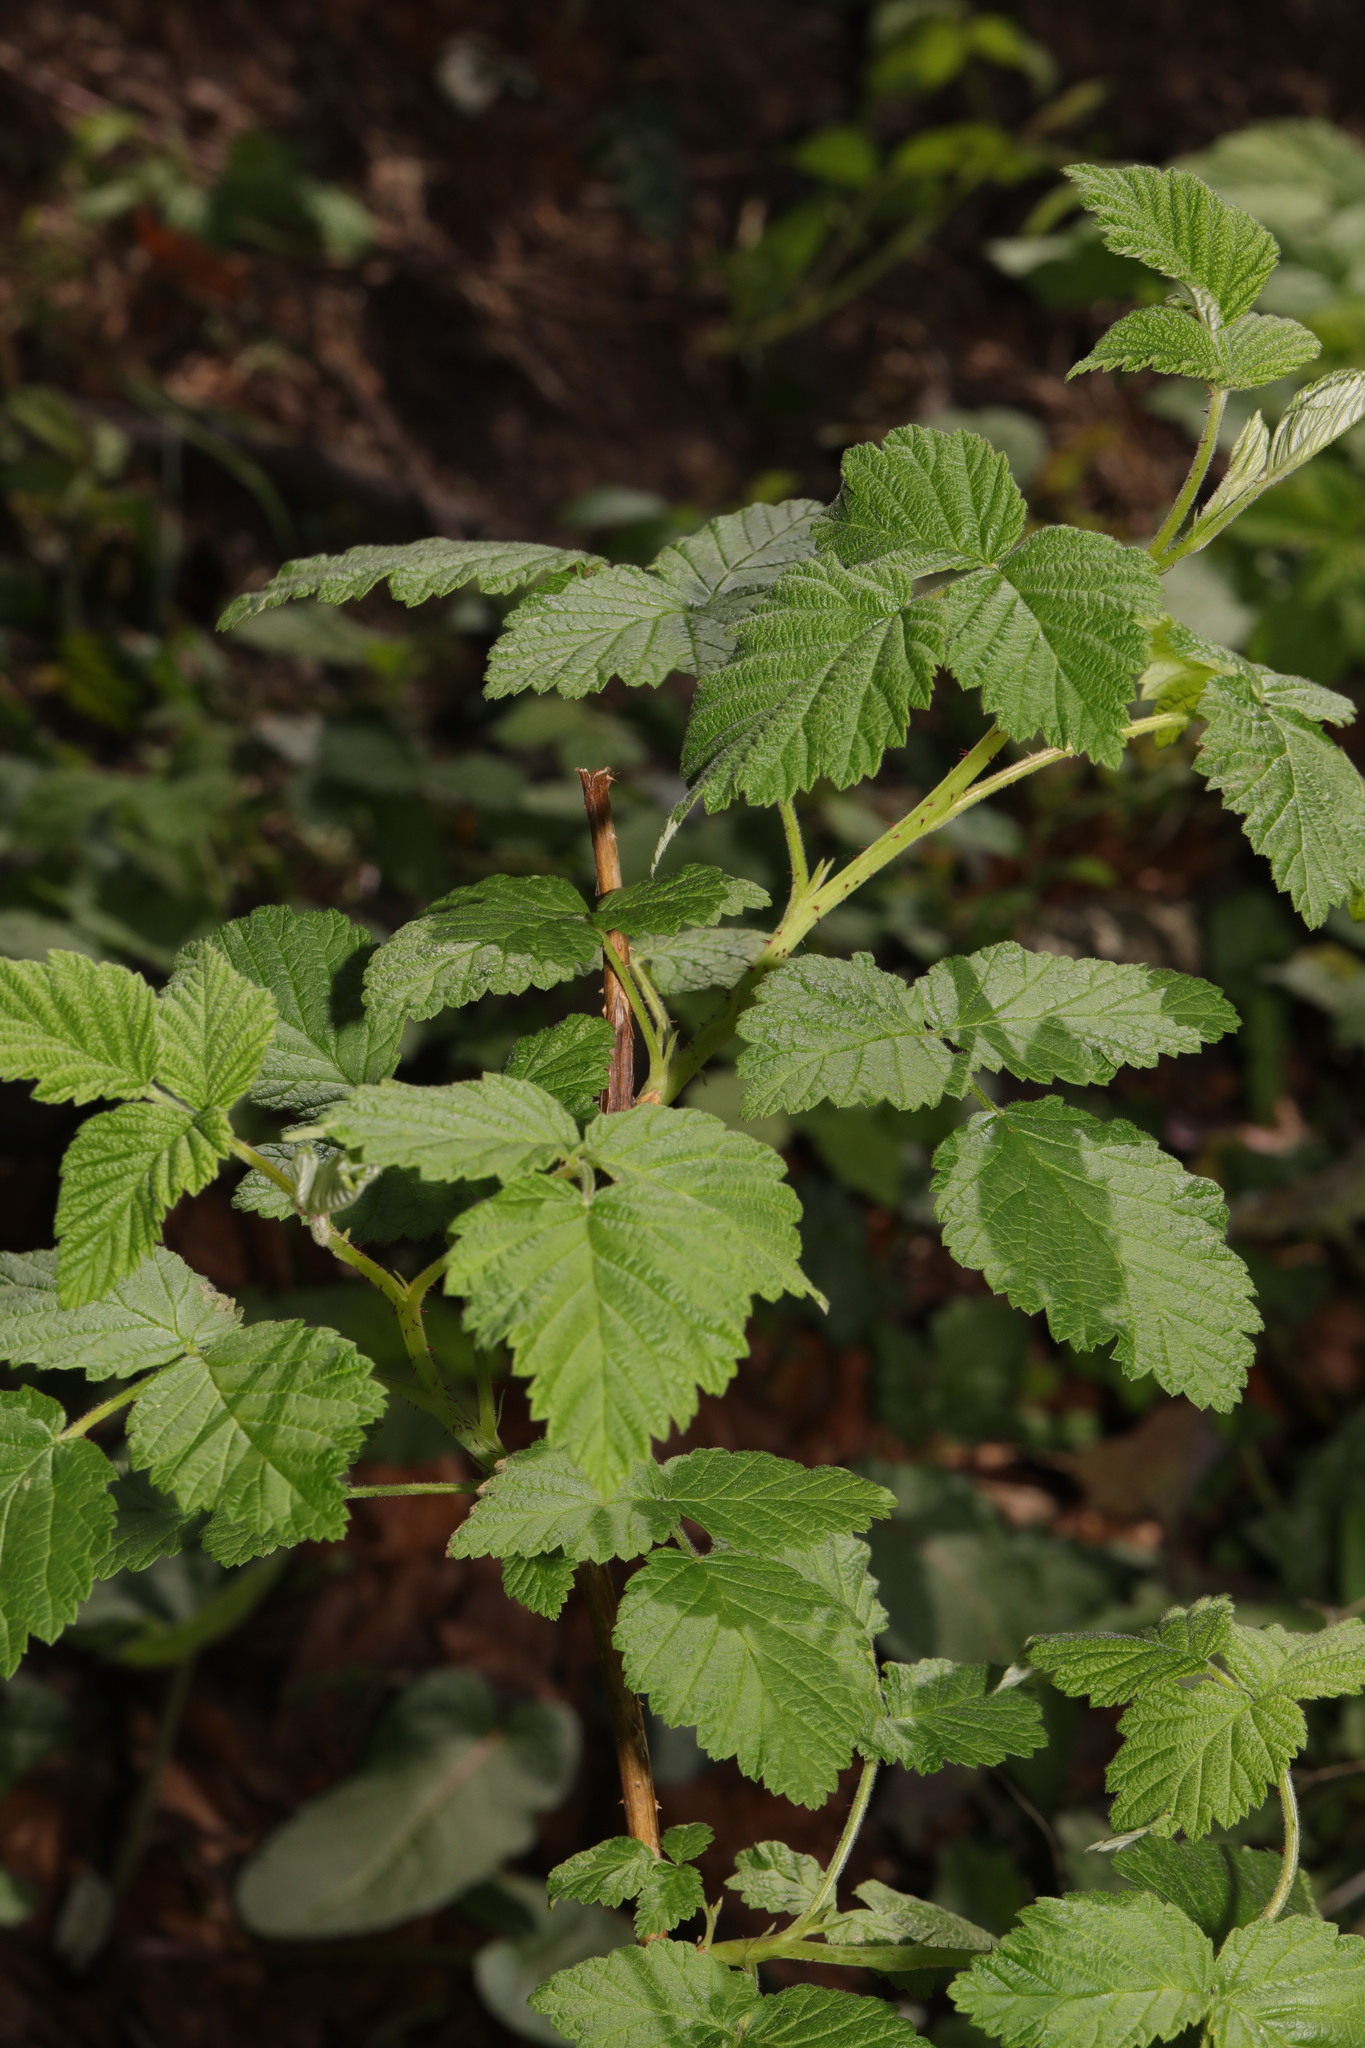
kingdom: Plantae
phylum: Tracheophyta
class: Magnoliopsida
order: Rosales
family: Rosaceae
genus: Rubus
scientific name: Rubus idaeus
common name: Raspberry
